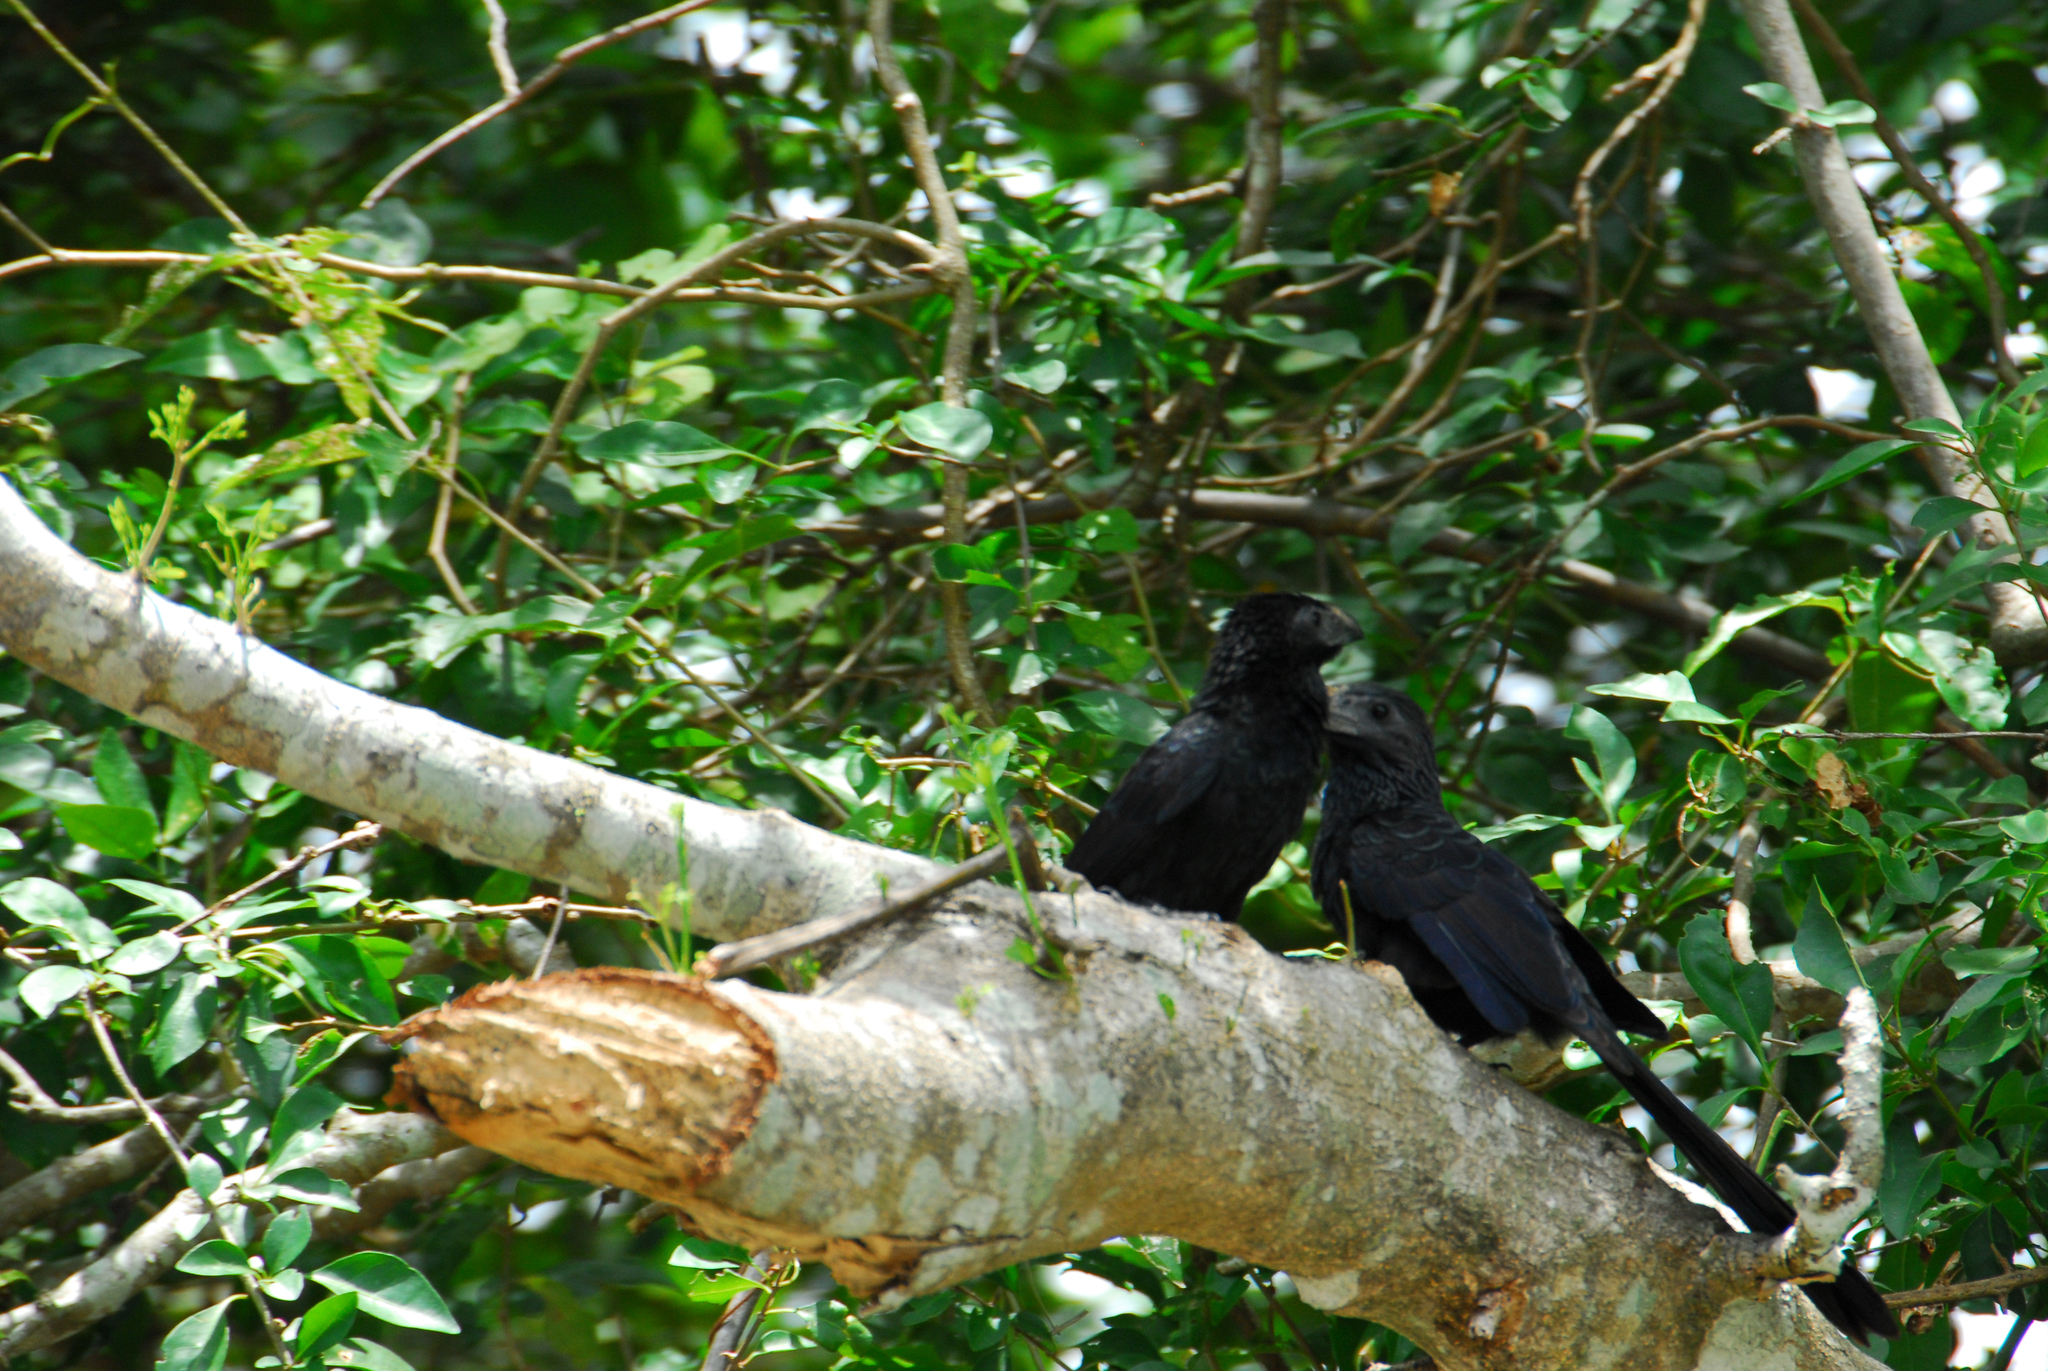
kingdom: Animalia
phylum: Chordata
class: Aves
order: Cuculiformes
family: Cuculidae
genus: Crotophaga
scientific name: Crotophaga sulcirostris
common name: Groove-billed ani
